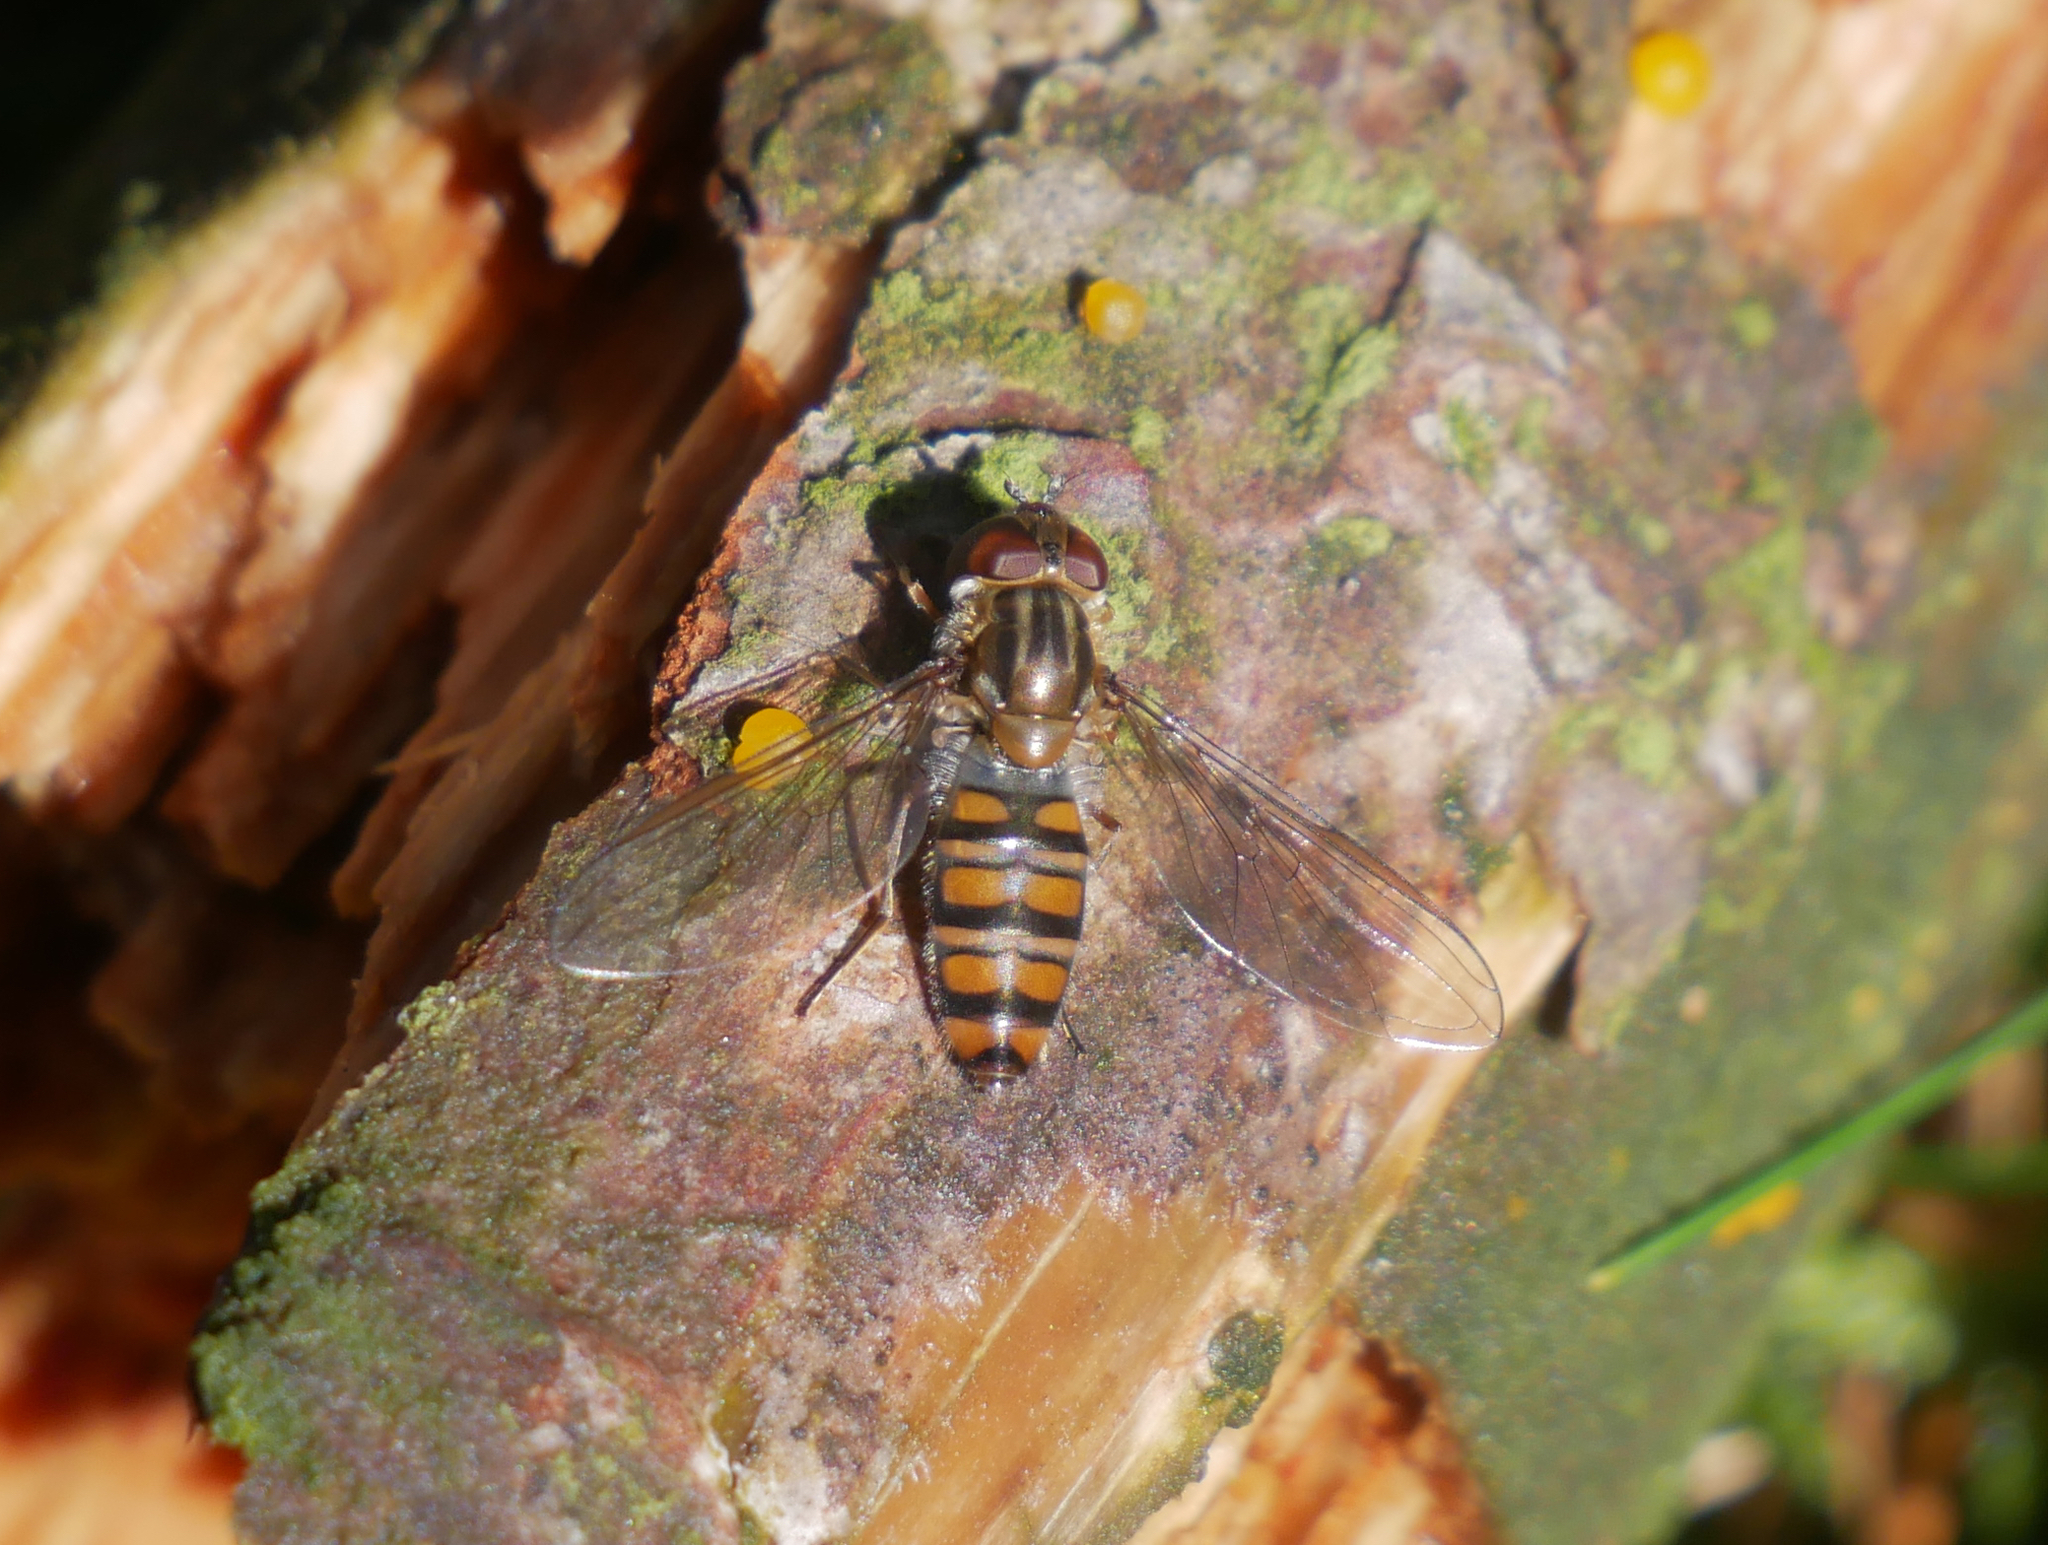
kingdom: Animalia
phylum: Arthropoda
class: Insecta
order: Diptera
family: Syrphidae
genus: Episyrphus
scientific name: Episyrphus balteatus
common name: Marmalade hoverfly
